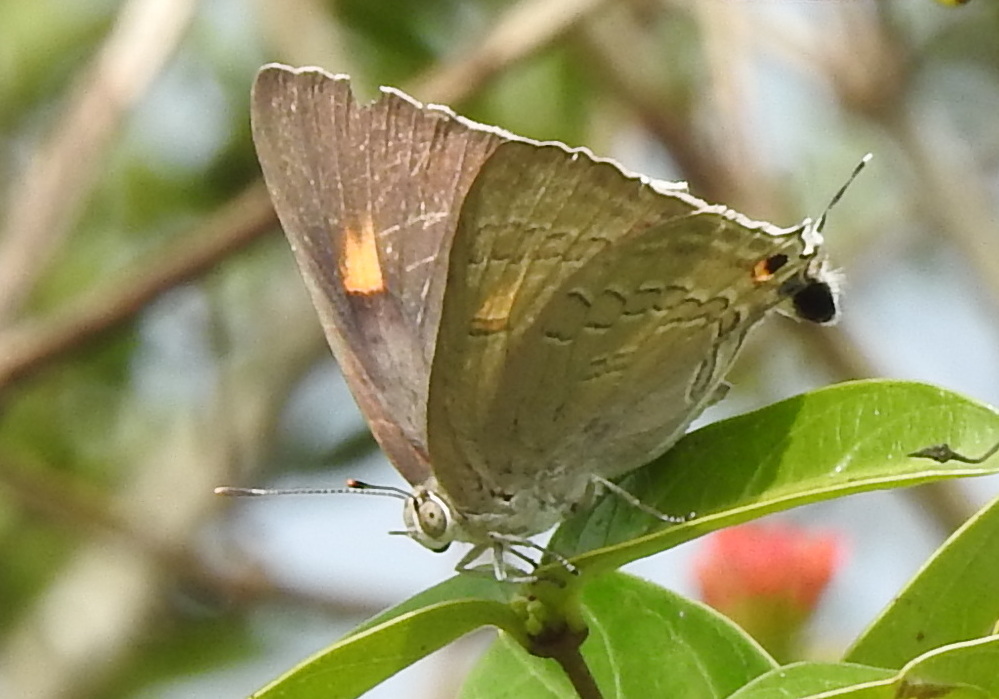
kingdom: Animalia
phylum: Arthropoda
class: Insecta
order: Lepidoptera
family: Lycaenidae
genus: Deudorix
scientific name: Deudorix
